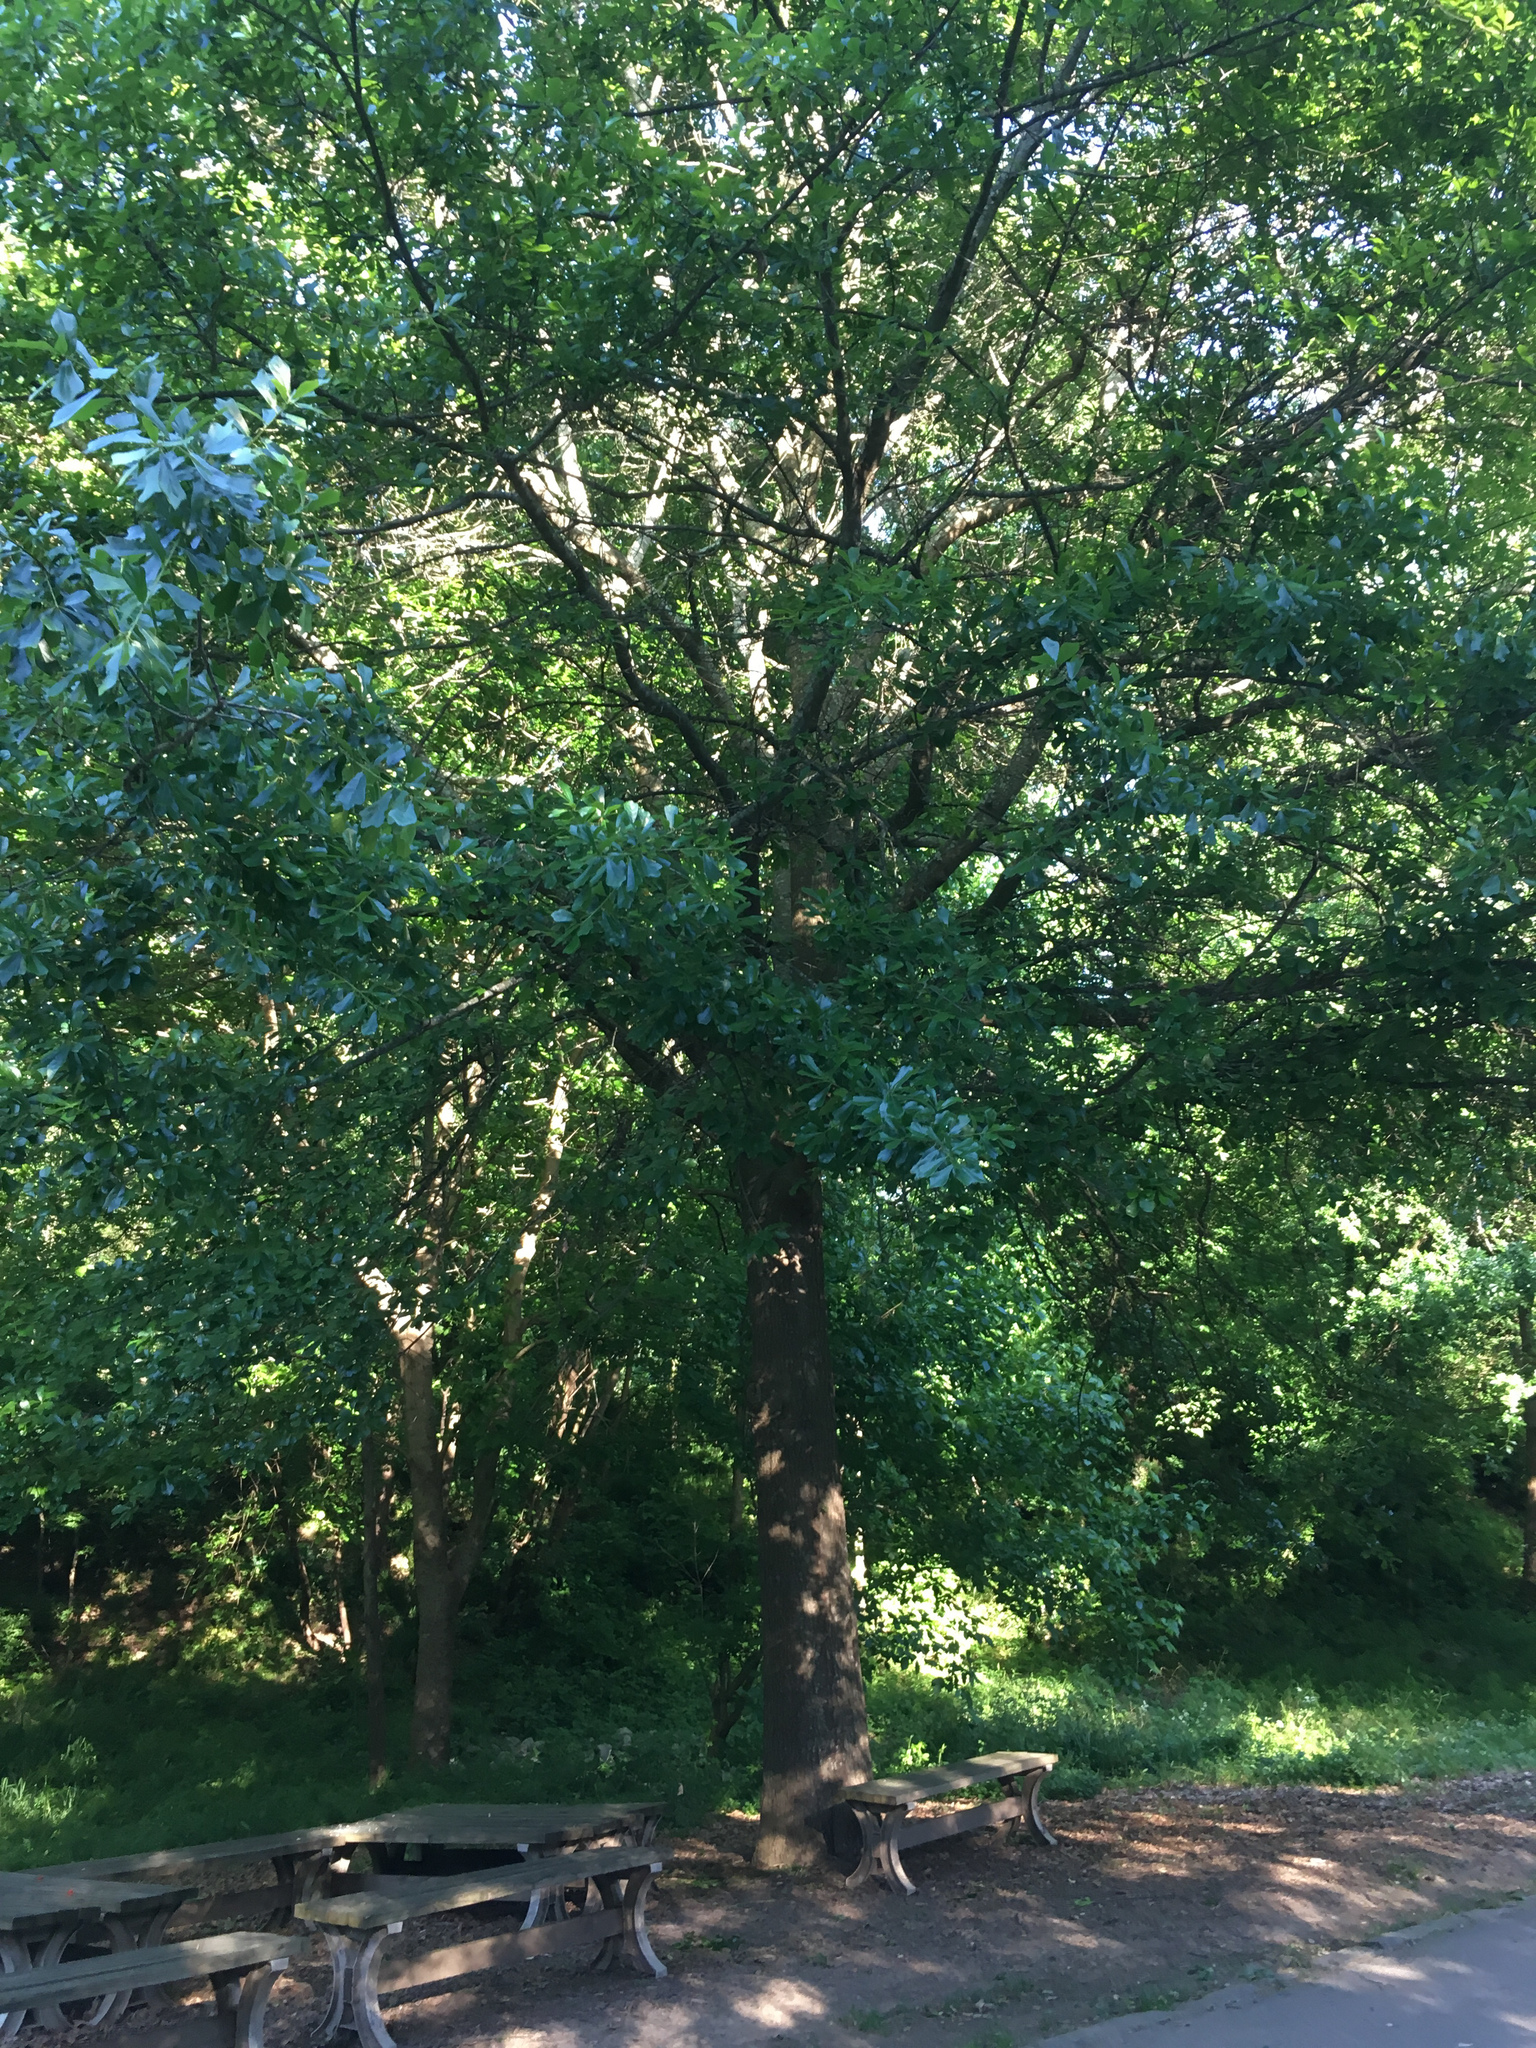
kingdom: Plantae
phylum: Tracheophyta
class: Magnoliopsida
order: Fagales
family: Fagaceae
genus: Quercus
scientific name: Quercus nigra
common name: Water oak
